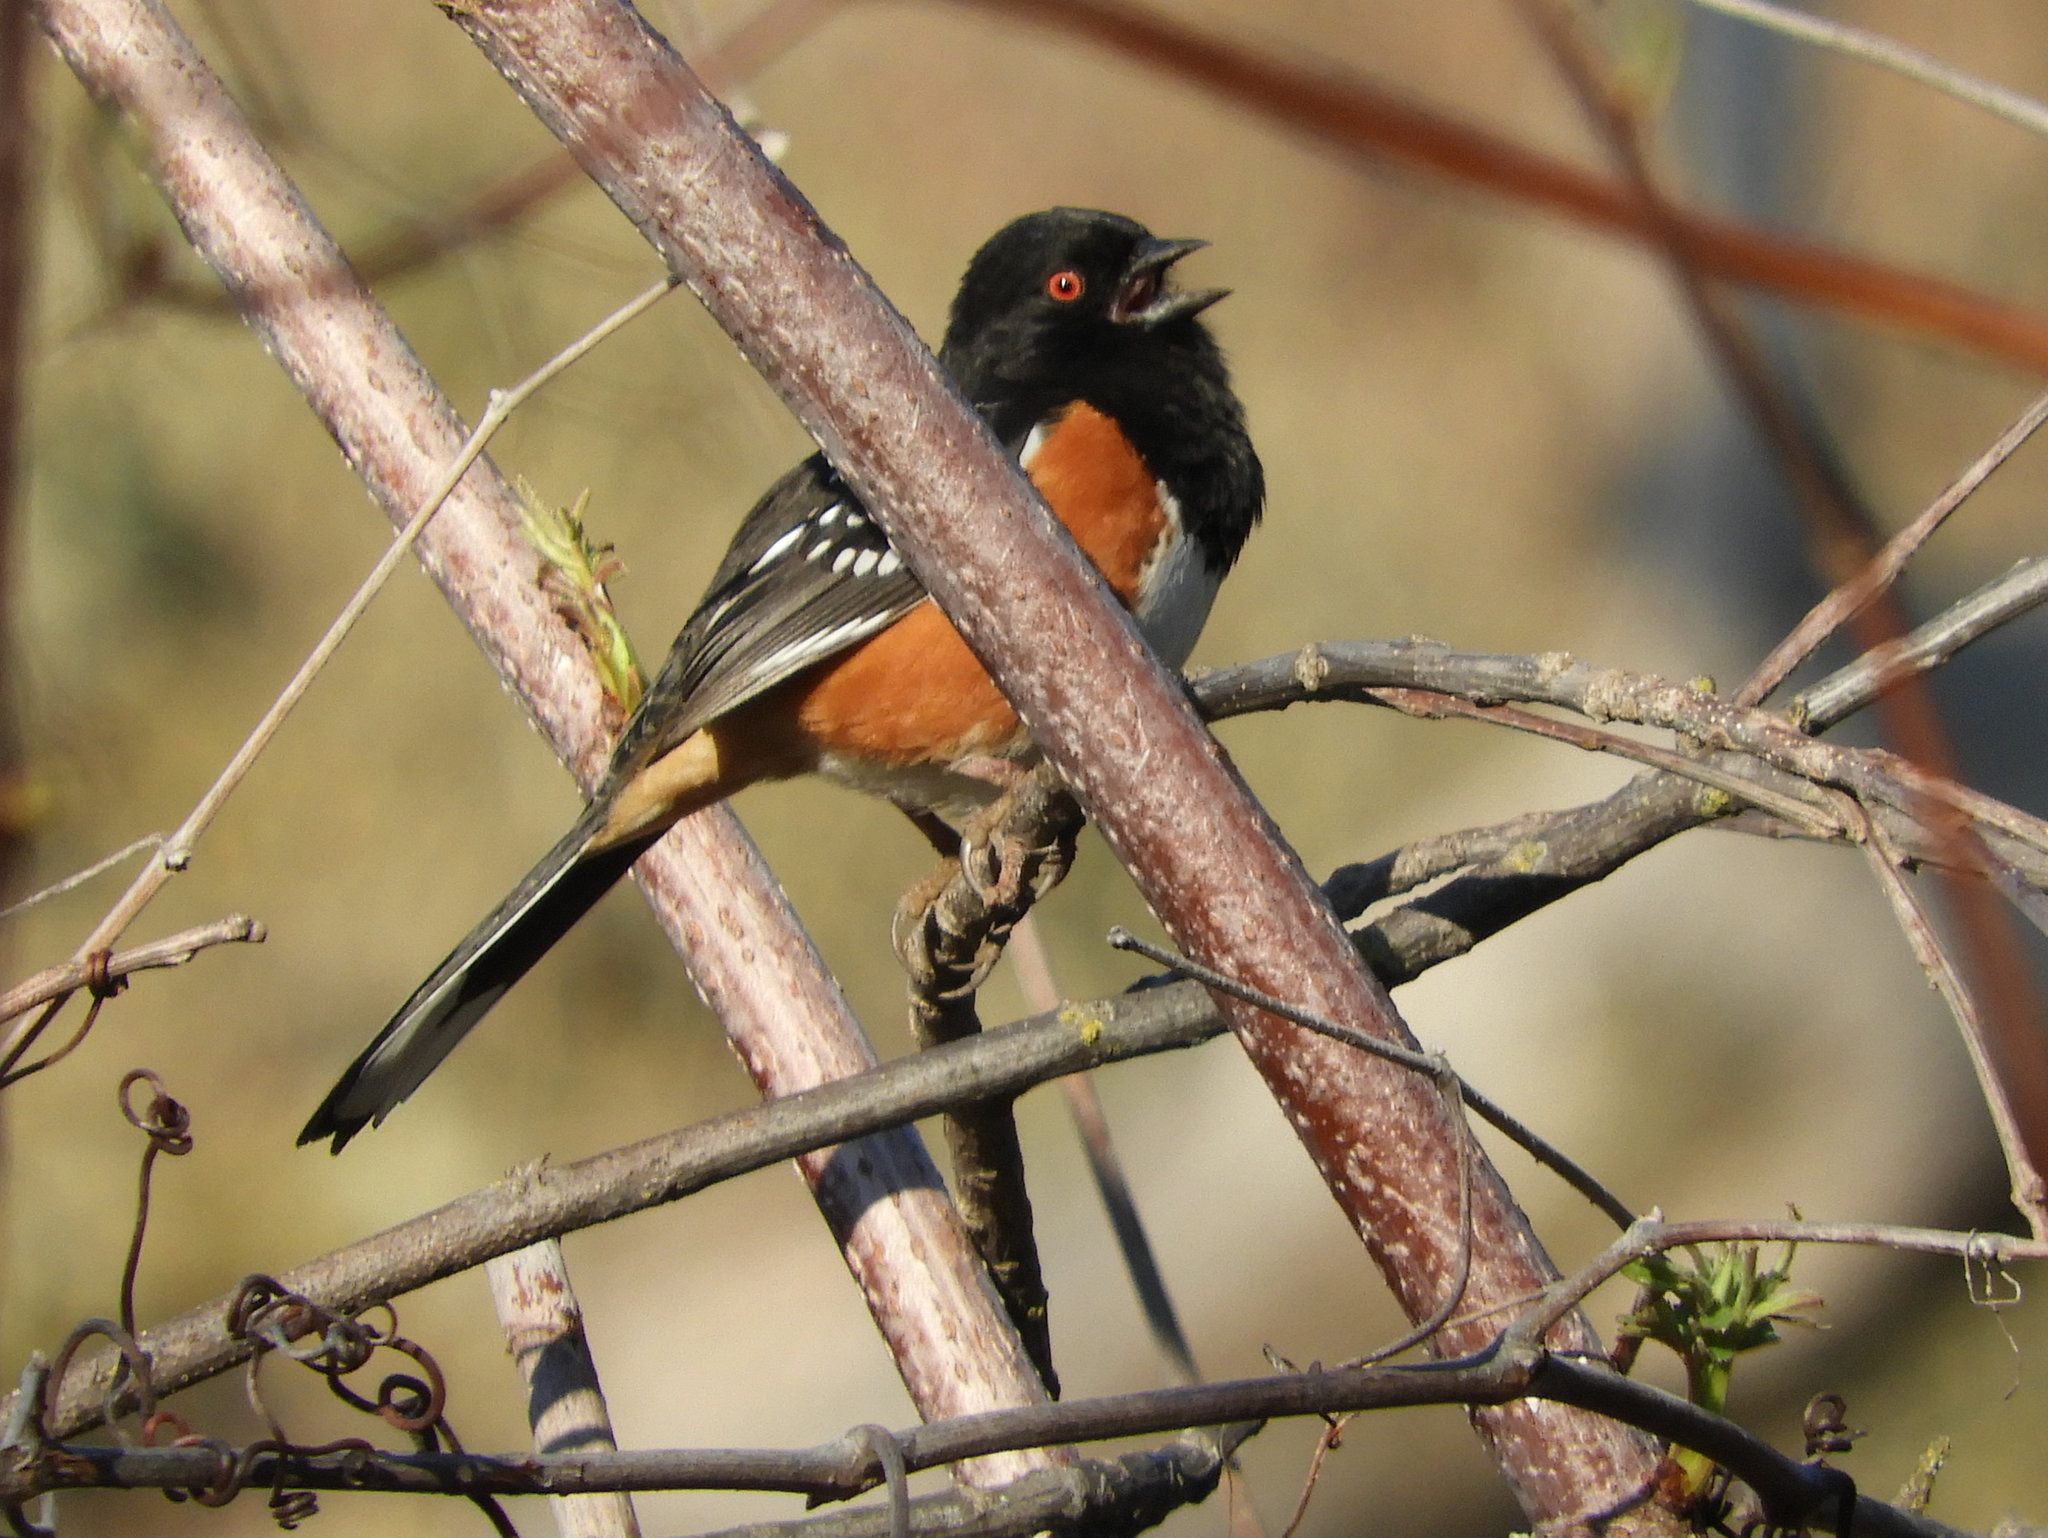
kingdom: Animalia
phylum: Chordata
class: Aves
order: Passeriformes
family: Passerellidae
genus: Pipilo
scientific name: Pipilo maculatus
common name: Spotted towhee
